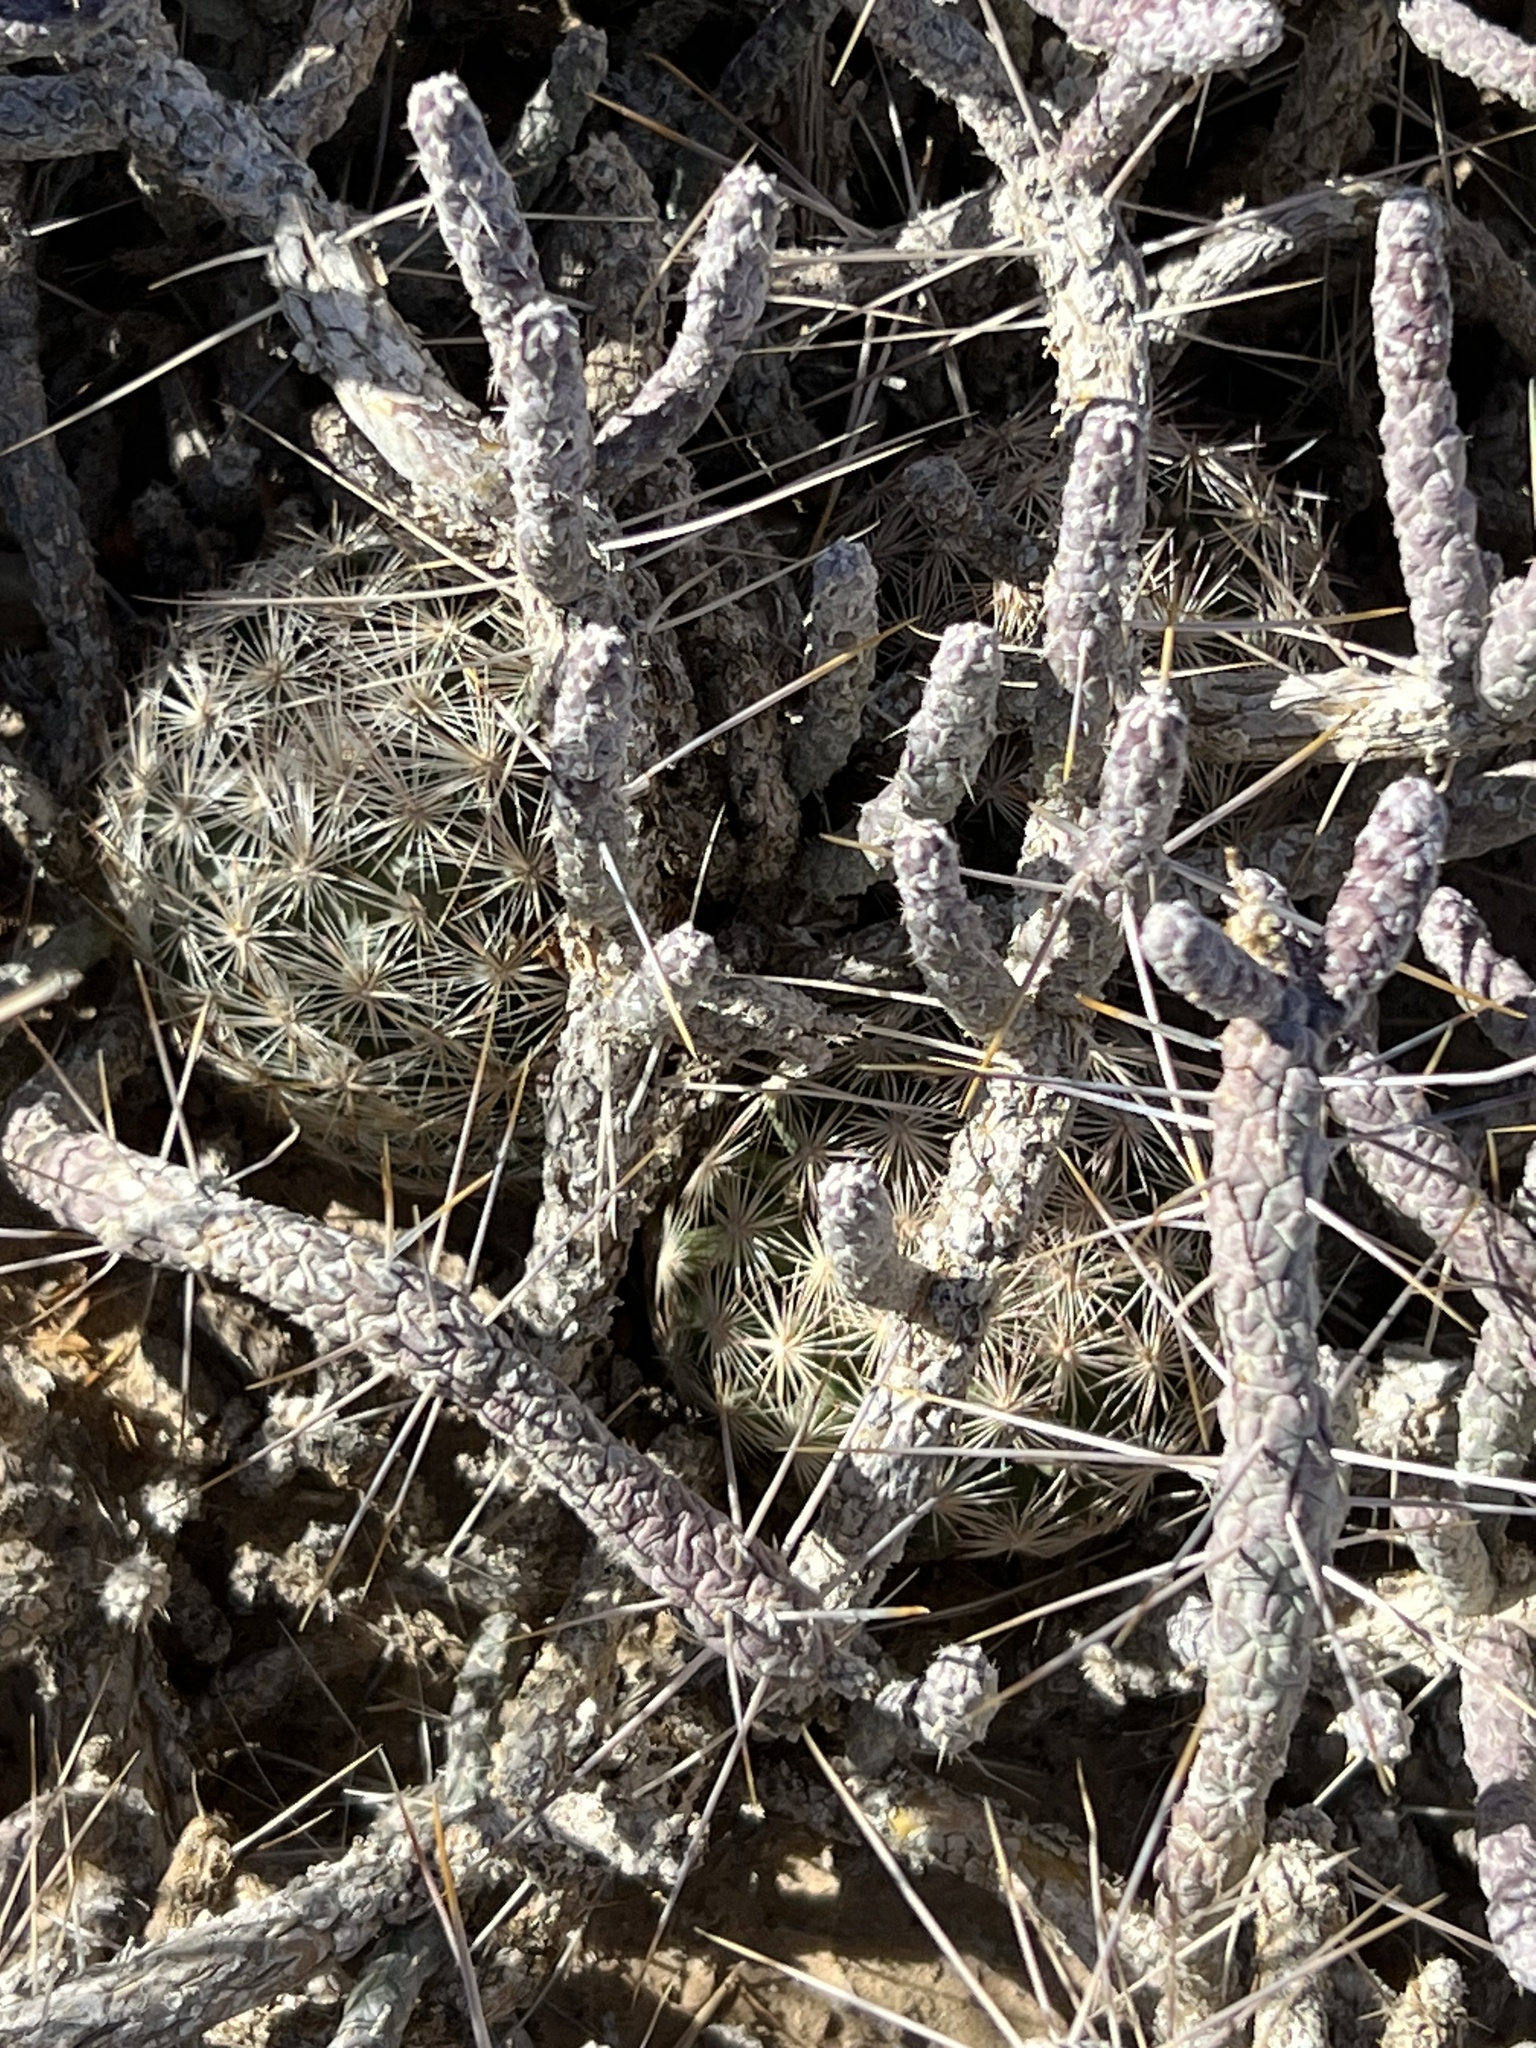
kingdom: Plantae
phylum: Tracheophyta
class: Magnoliopsida
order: Caryophyllales
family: Cactaceae
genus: Pelecyphora
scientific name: Pelecyphora dasyacantha
